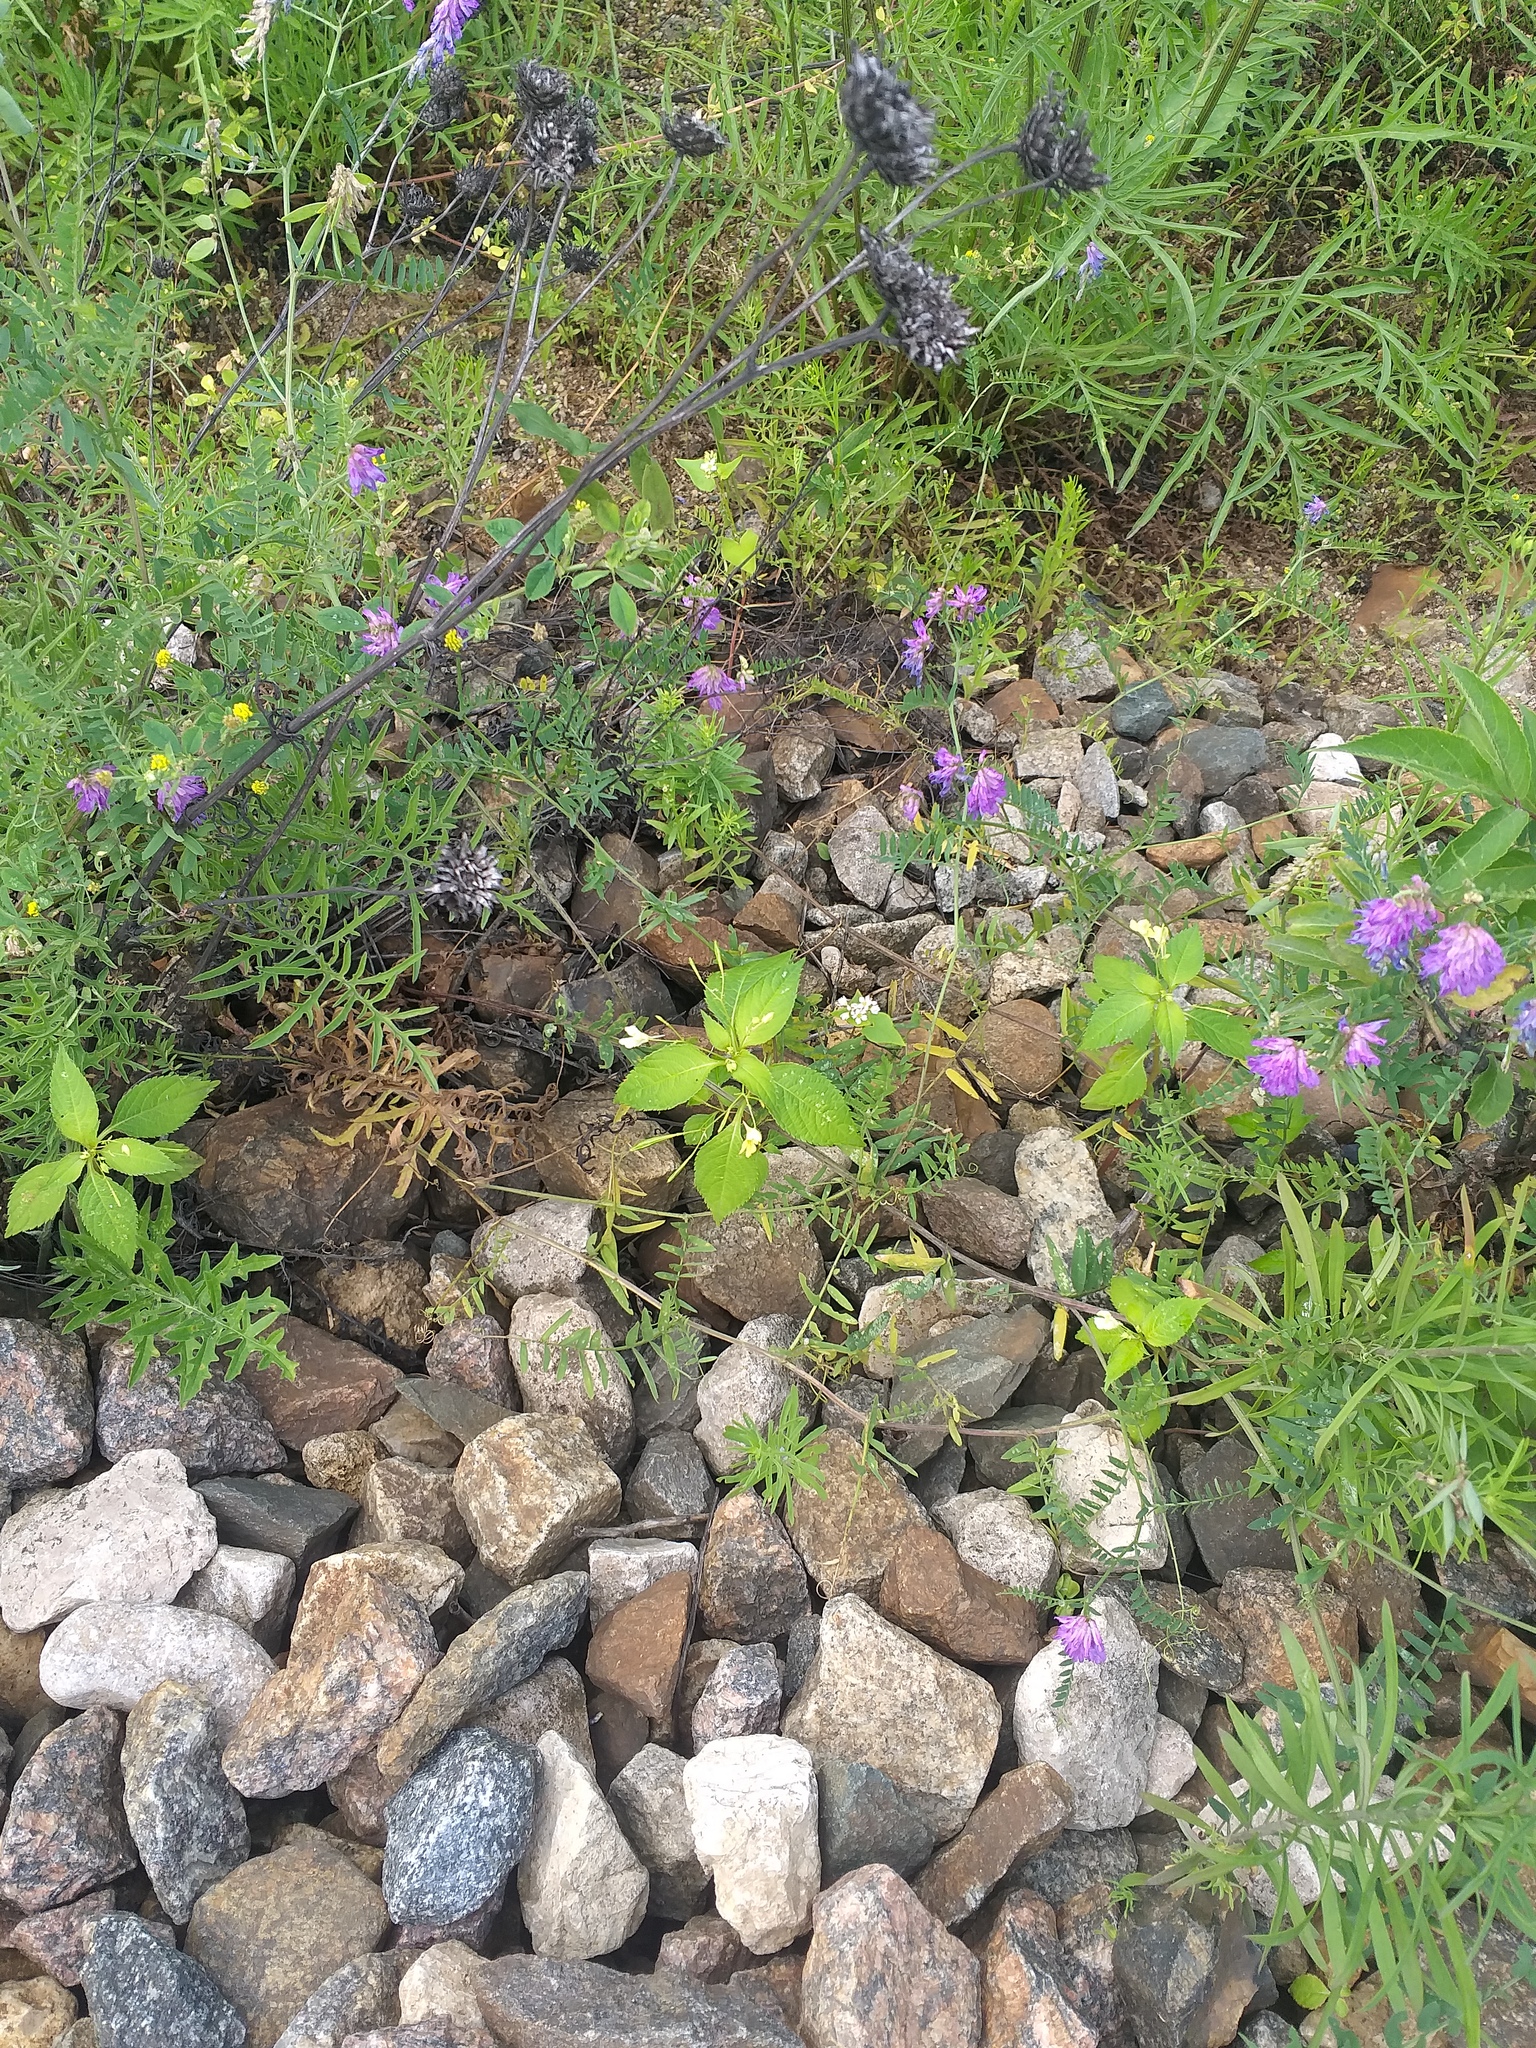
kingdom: Plantae
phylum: Tracheophyta
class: Magnoliopsida
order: Ericales
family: Balsaminaceae
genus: Impatiens
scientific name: Impatiens parviflora
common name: Small balsam
